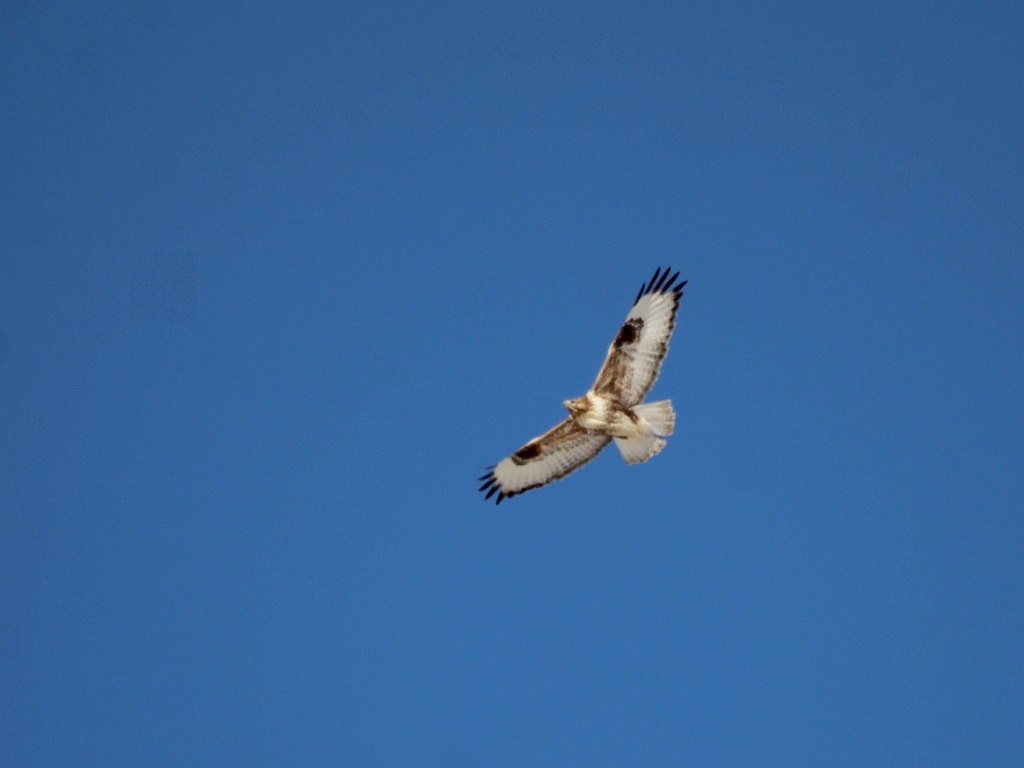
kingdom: Animalia
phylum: Chordata
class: Aves
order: Accipitriformes
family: Accipitridae
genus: Buteo
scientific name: Buteo hemilasius
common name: Upland buzzard
